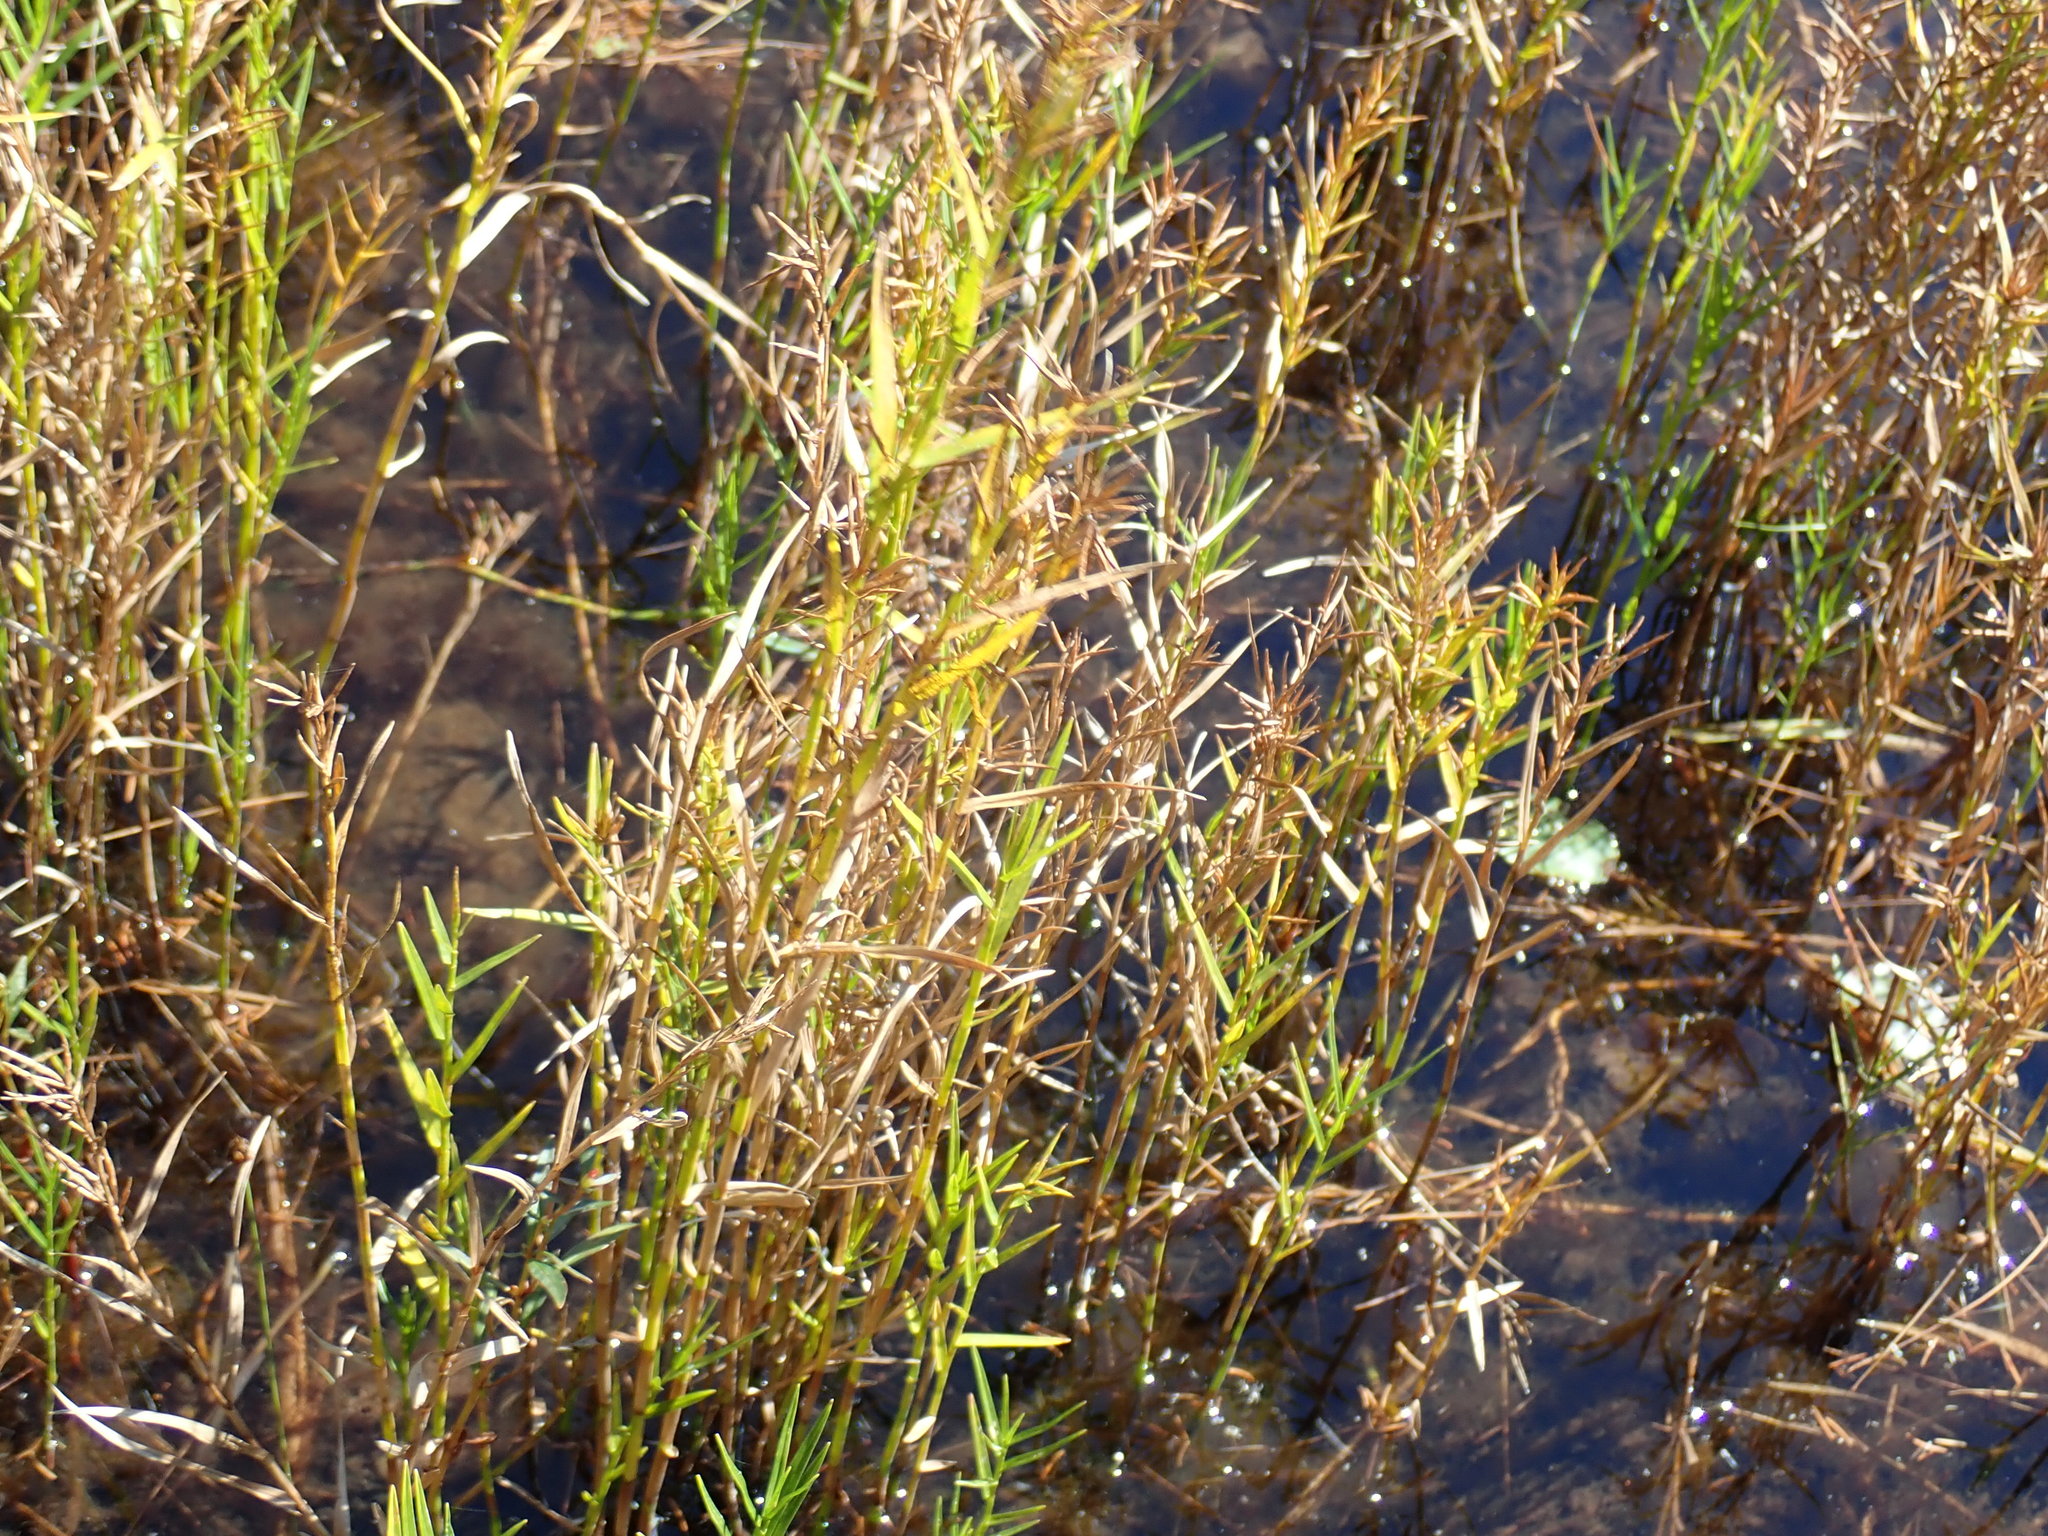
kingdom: Plantae
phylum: Tracheophyta
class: Liliopsida
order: Poales
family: Cyperaceae
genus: Dulichium
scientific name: Dulichium arundinaceum
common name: Three-way sedge
